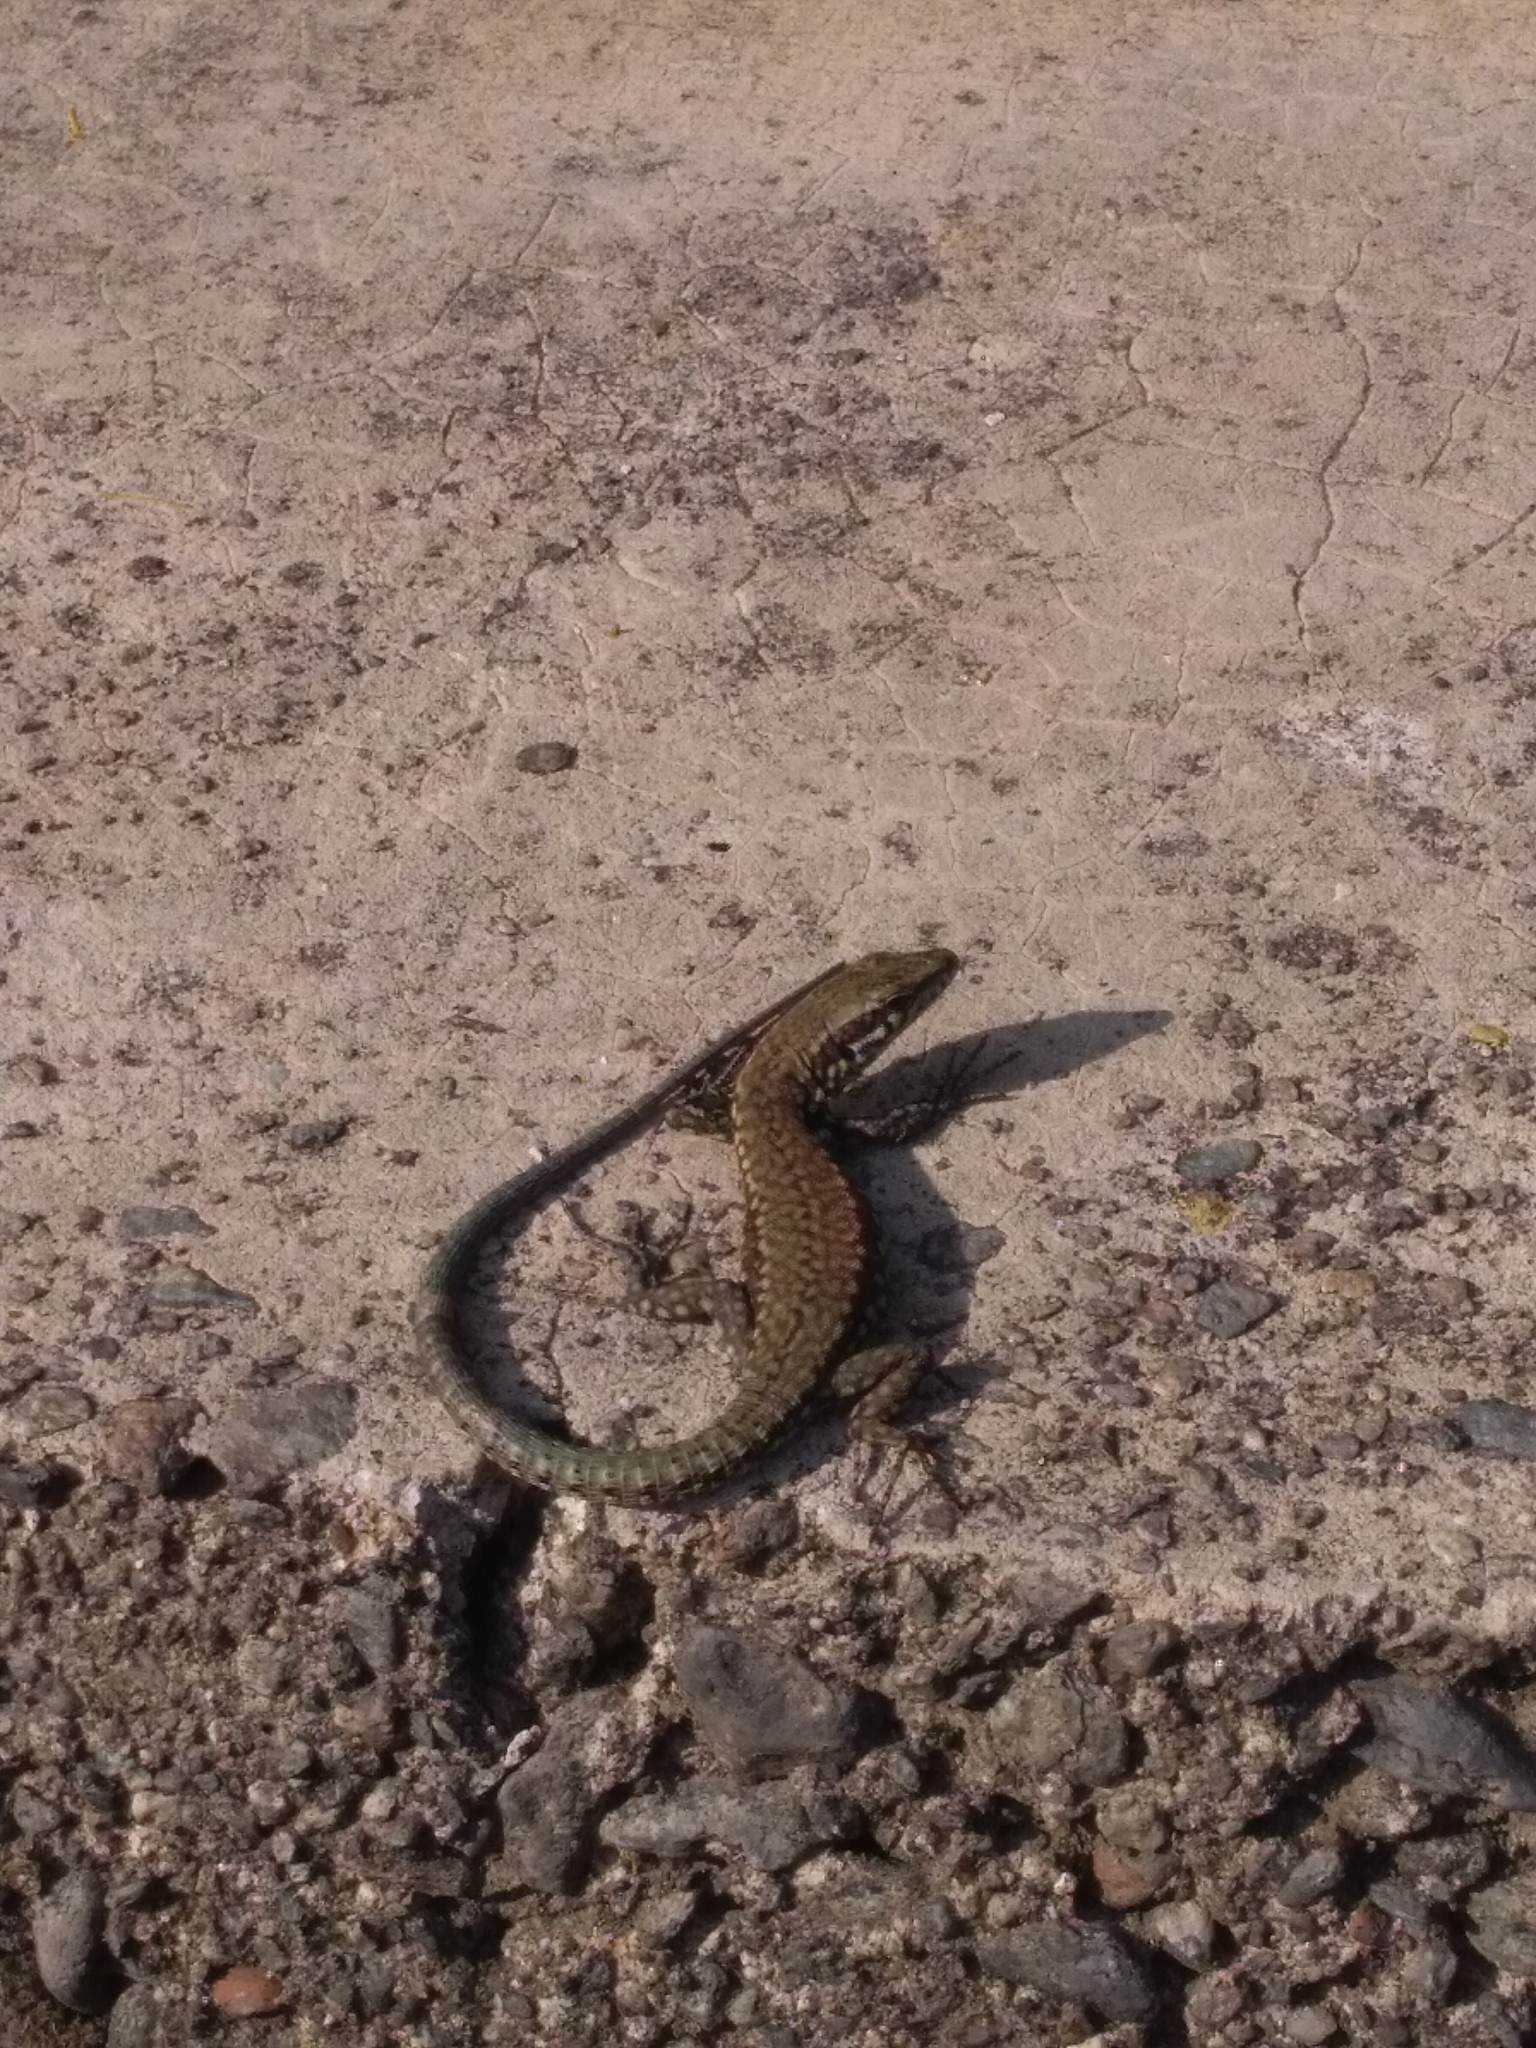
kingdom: Animalia
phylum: Chordata
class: Squamata
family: Lacertidae
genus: Podarcis
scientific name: Podarcis muralis
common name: Common wall lizard
